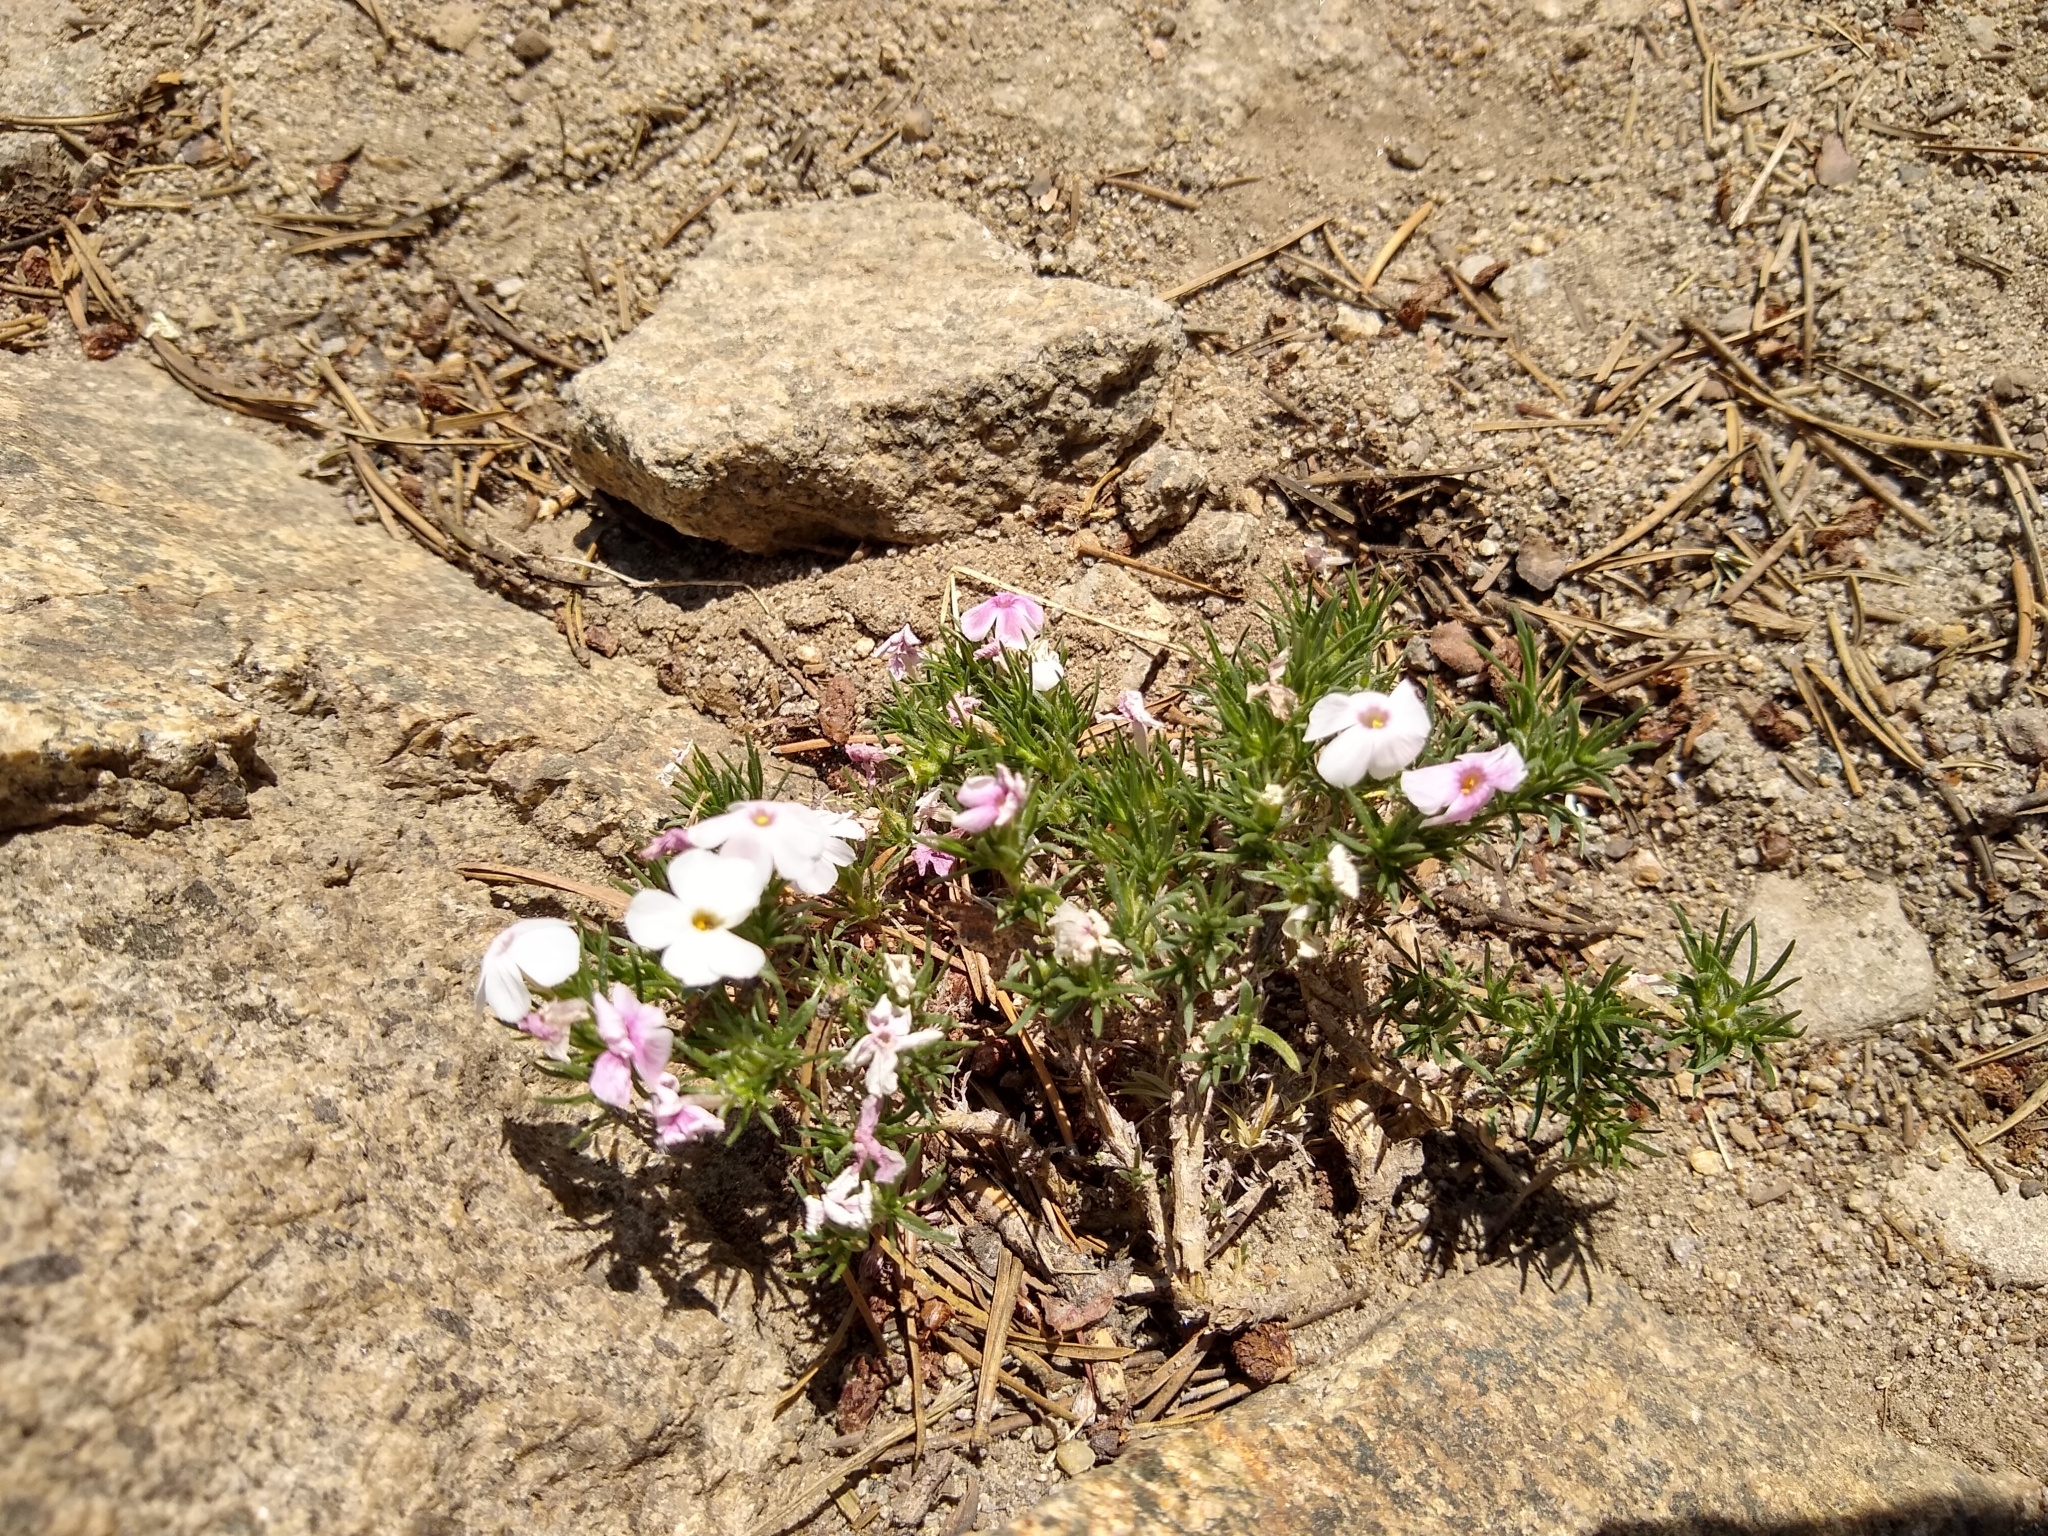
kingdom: Plantae
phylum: Tracheophyta
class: Magnoliopsida
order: Ericales
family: Polemoniaceae
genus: Phlox
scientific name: Phlox diffusa
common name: Mat phlox
